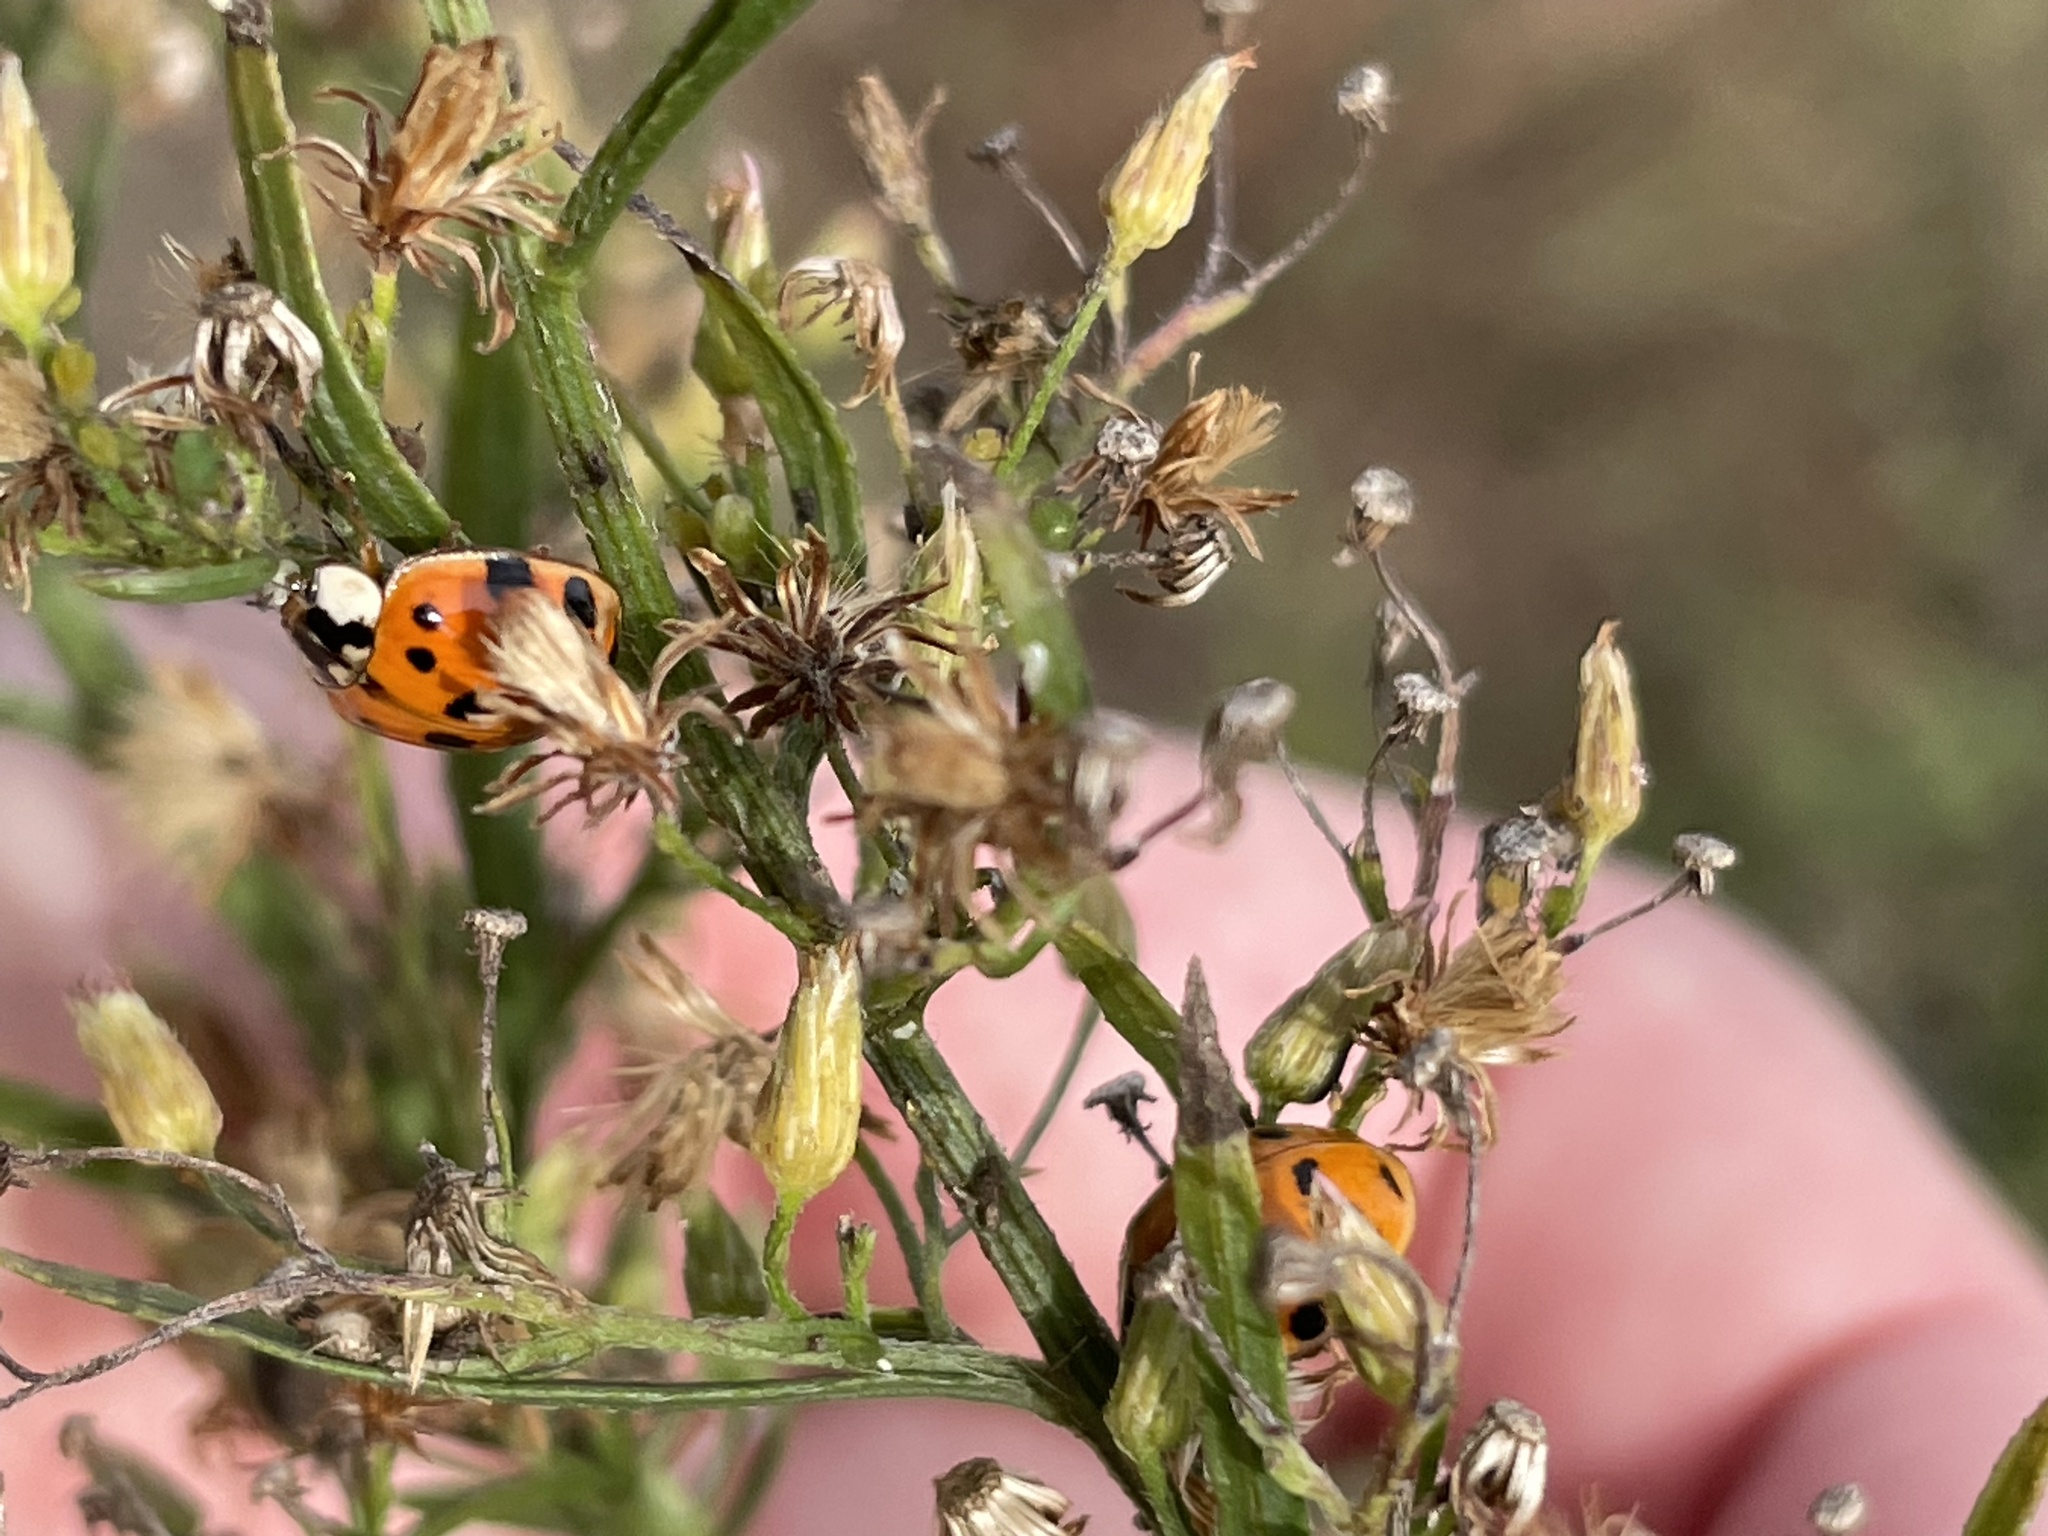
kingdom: Animalia
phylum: Arthropoda
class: Insecta
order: Coleoptera
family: Coccinellidae
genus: Harmonia
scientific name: Harmonia axyridis
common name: Harlequin ladybird
